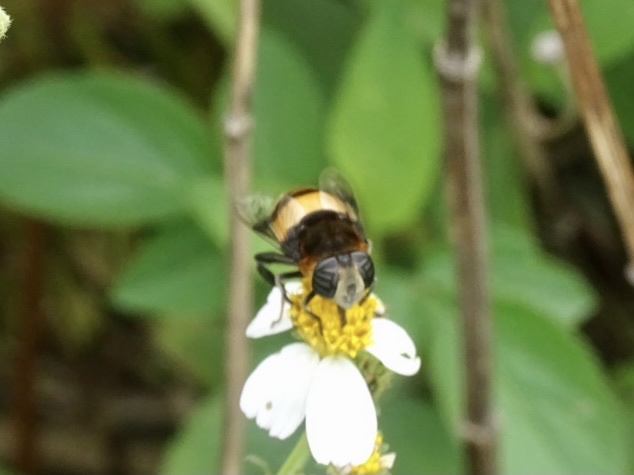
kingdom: Animalia
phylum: Arthropoda
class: Insecta
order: Diptera
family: Syrphidae
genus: Phytomia
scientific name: Phytomia zonata
